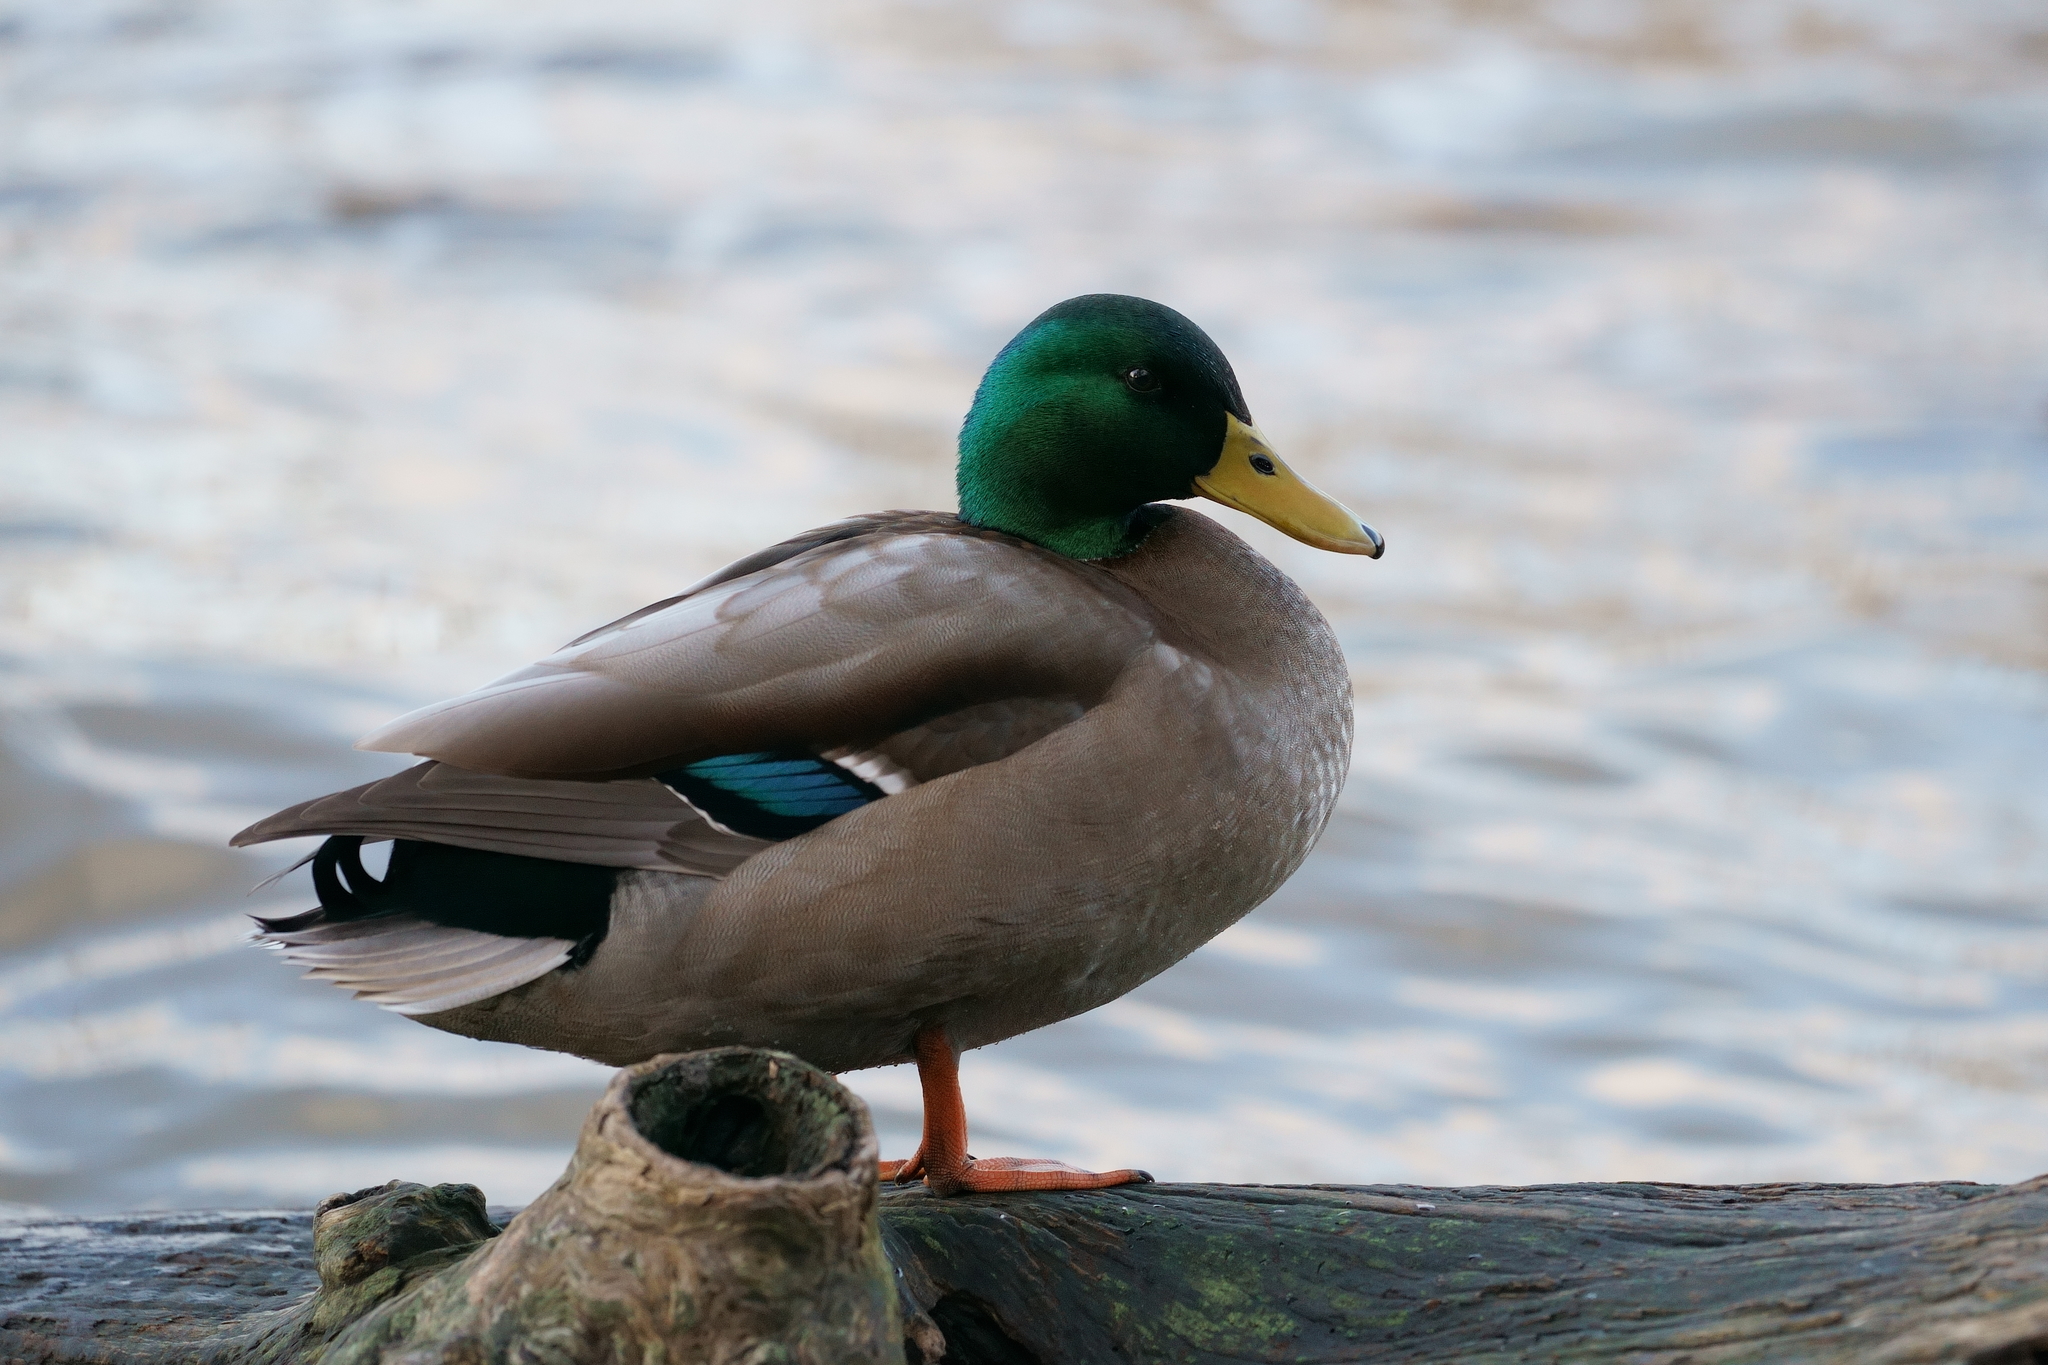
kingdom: Animalia
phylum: Chordata
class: Aves
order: Anseriformes
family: Anatidae
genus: Anas
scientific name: Anas platyrhynchos
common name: Mallard
